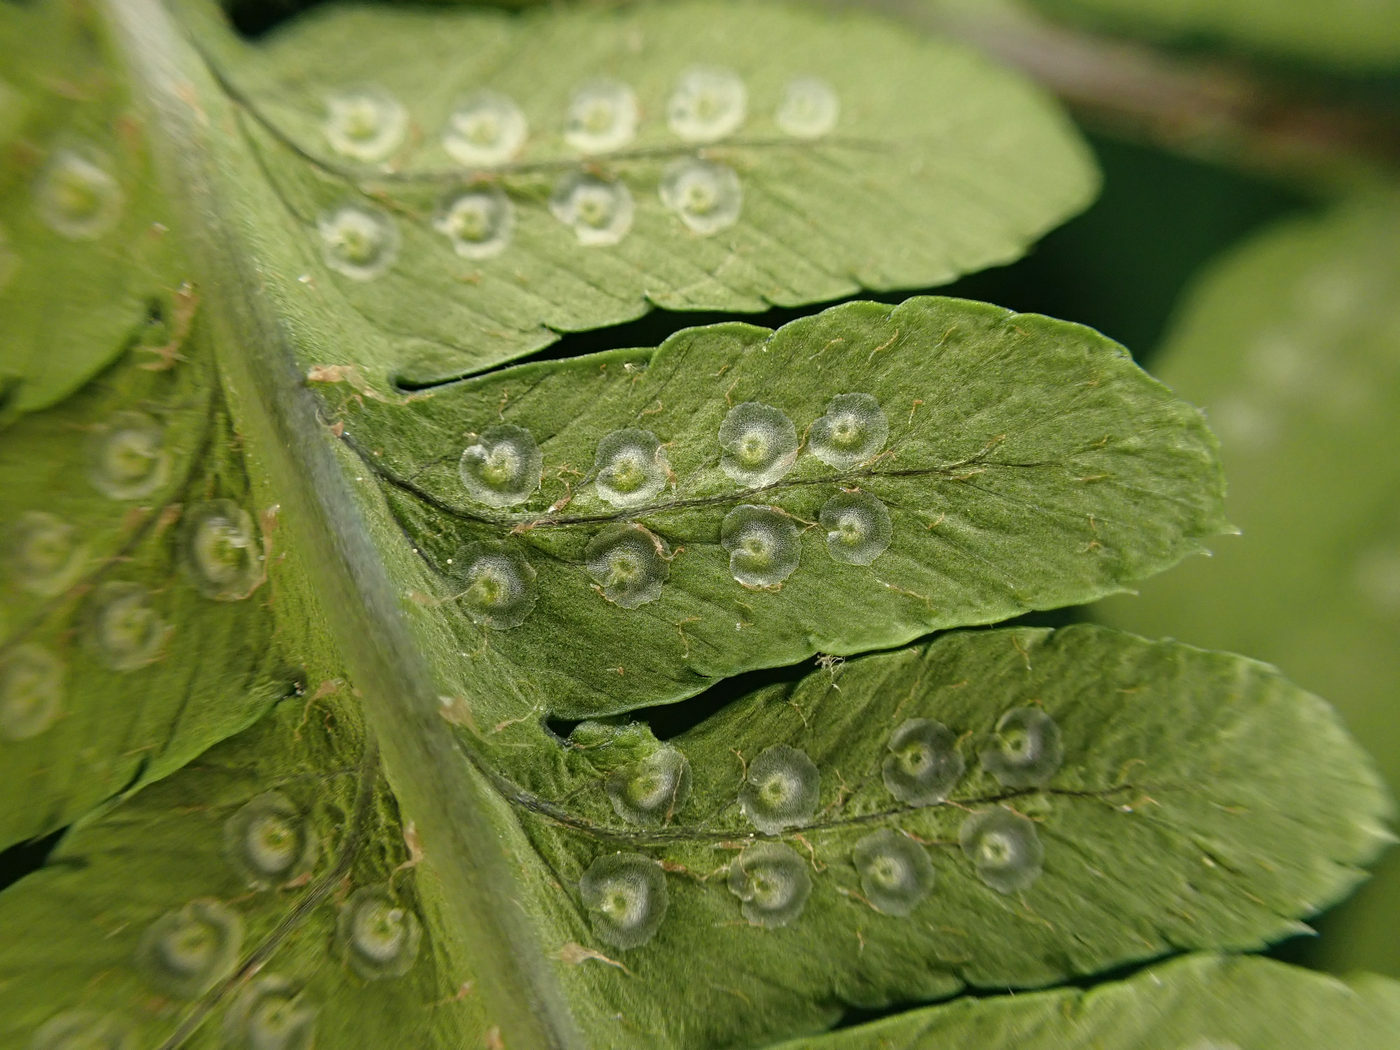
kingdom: Plantae
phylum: Tracheophyta
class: Polypodiopsida
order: Polypodiales
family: Dryopteridaceae
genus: Dryopteris
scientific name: Dryopteris goldieana
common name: Goldie's fern
